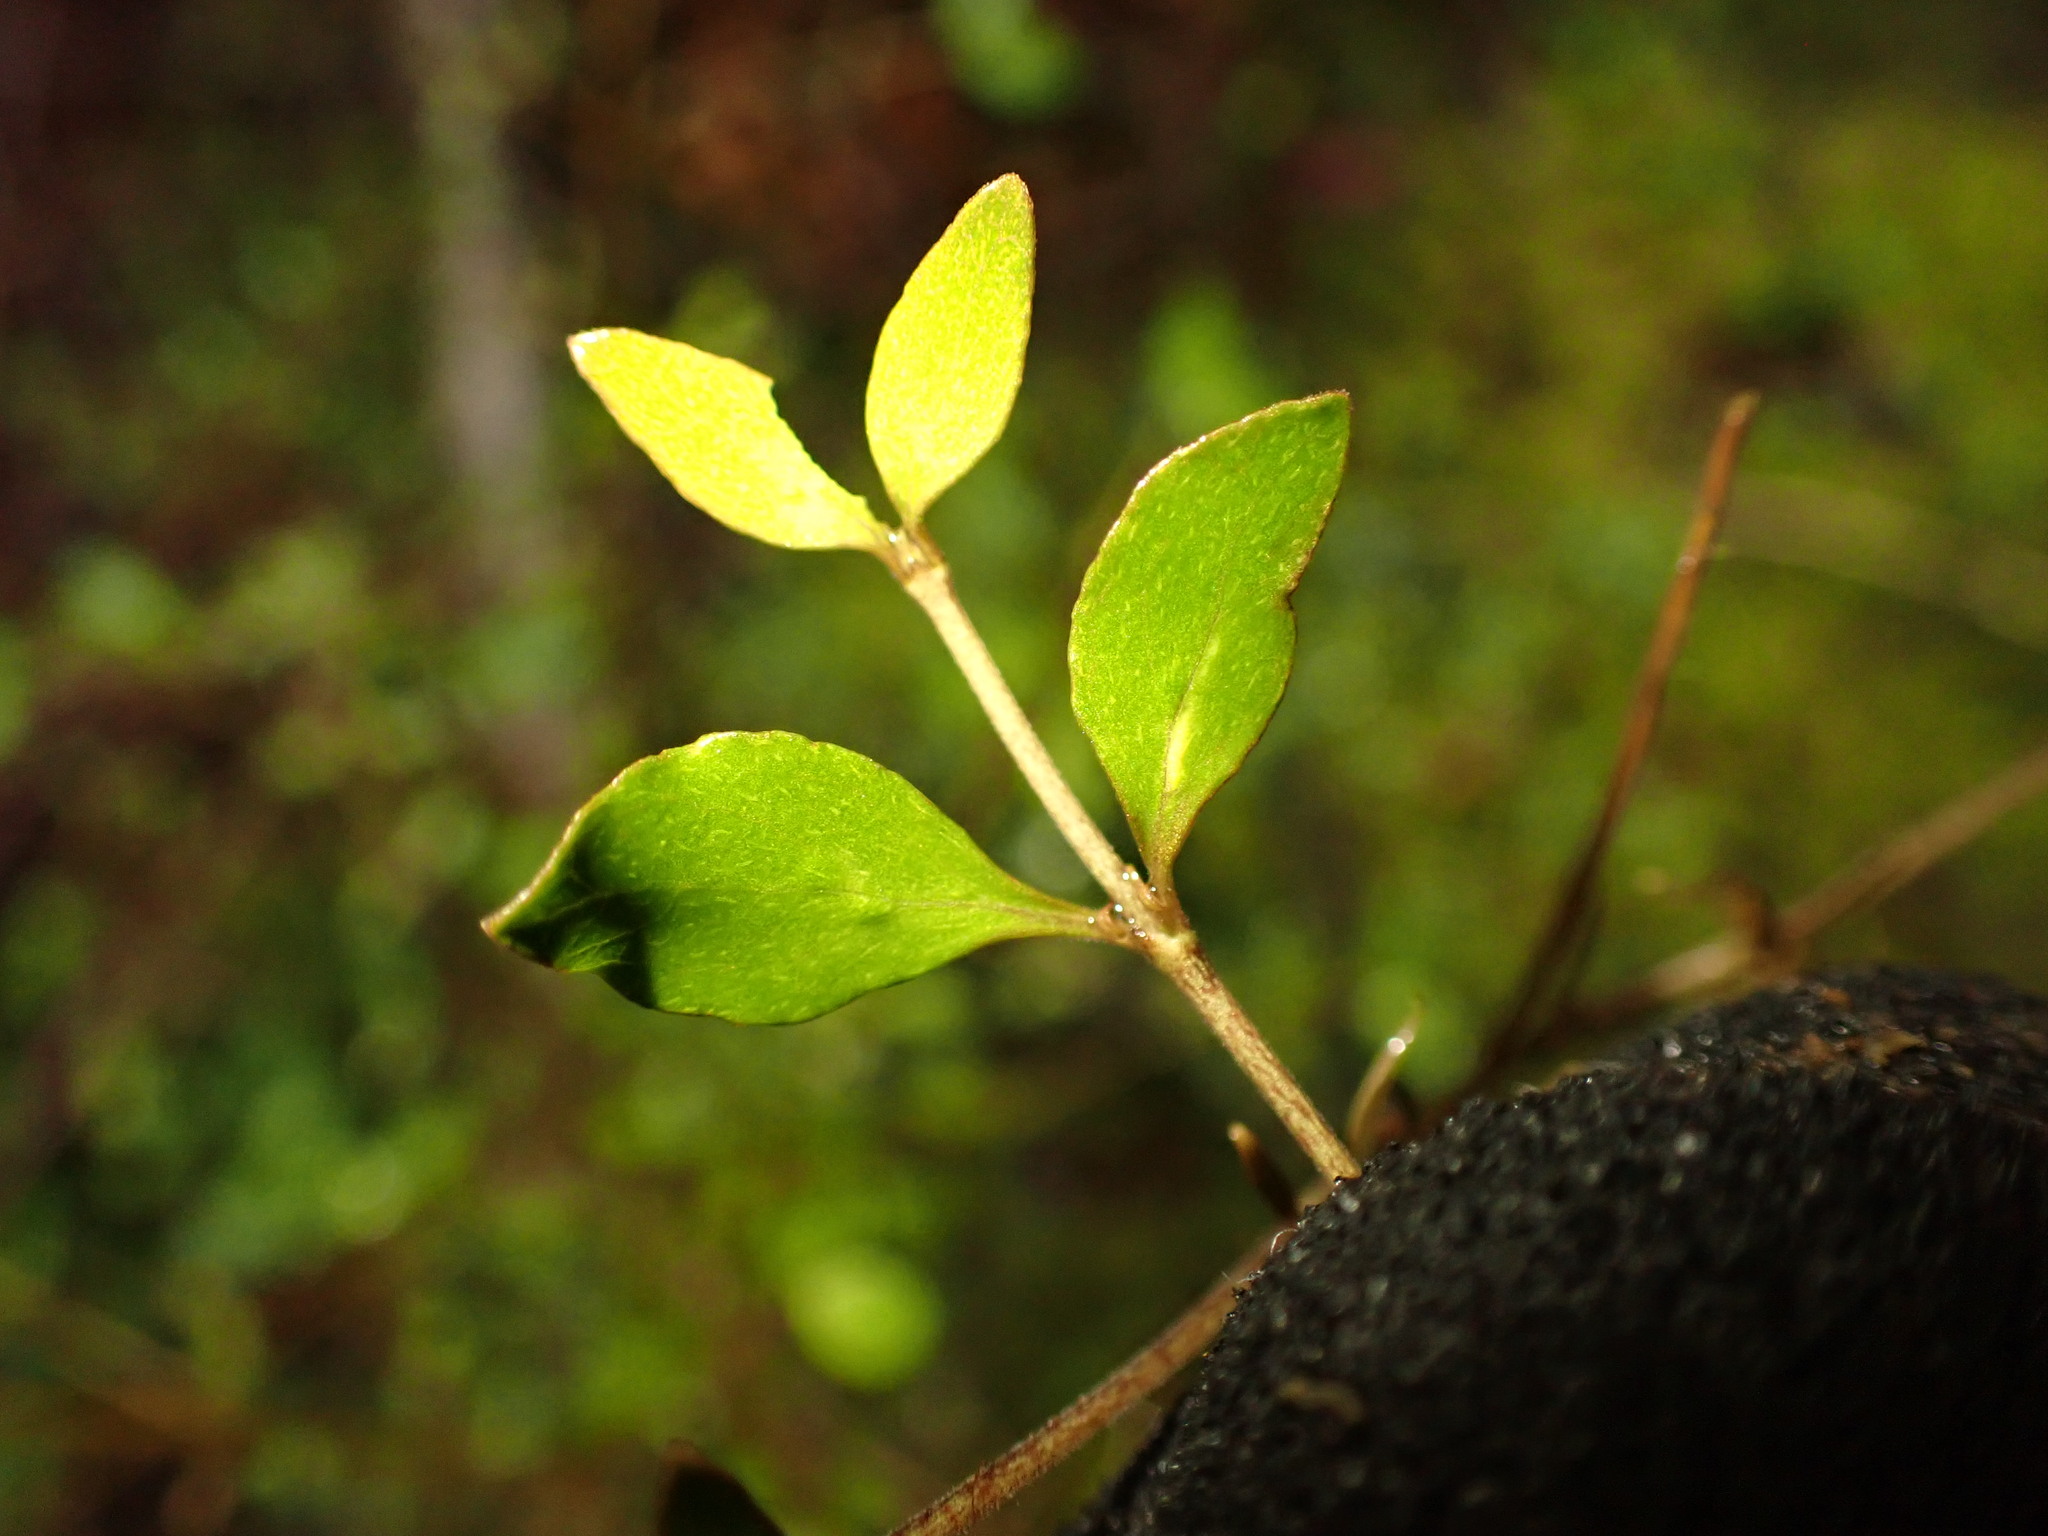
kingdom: Plantae
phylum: Tracheophyta
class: Magnoliopsida
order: Oxalidales
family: Elaeocarpaceae
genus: Aristotelia
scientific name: Aristotelia
